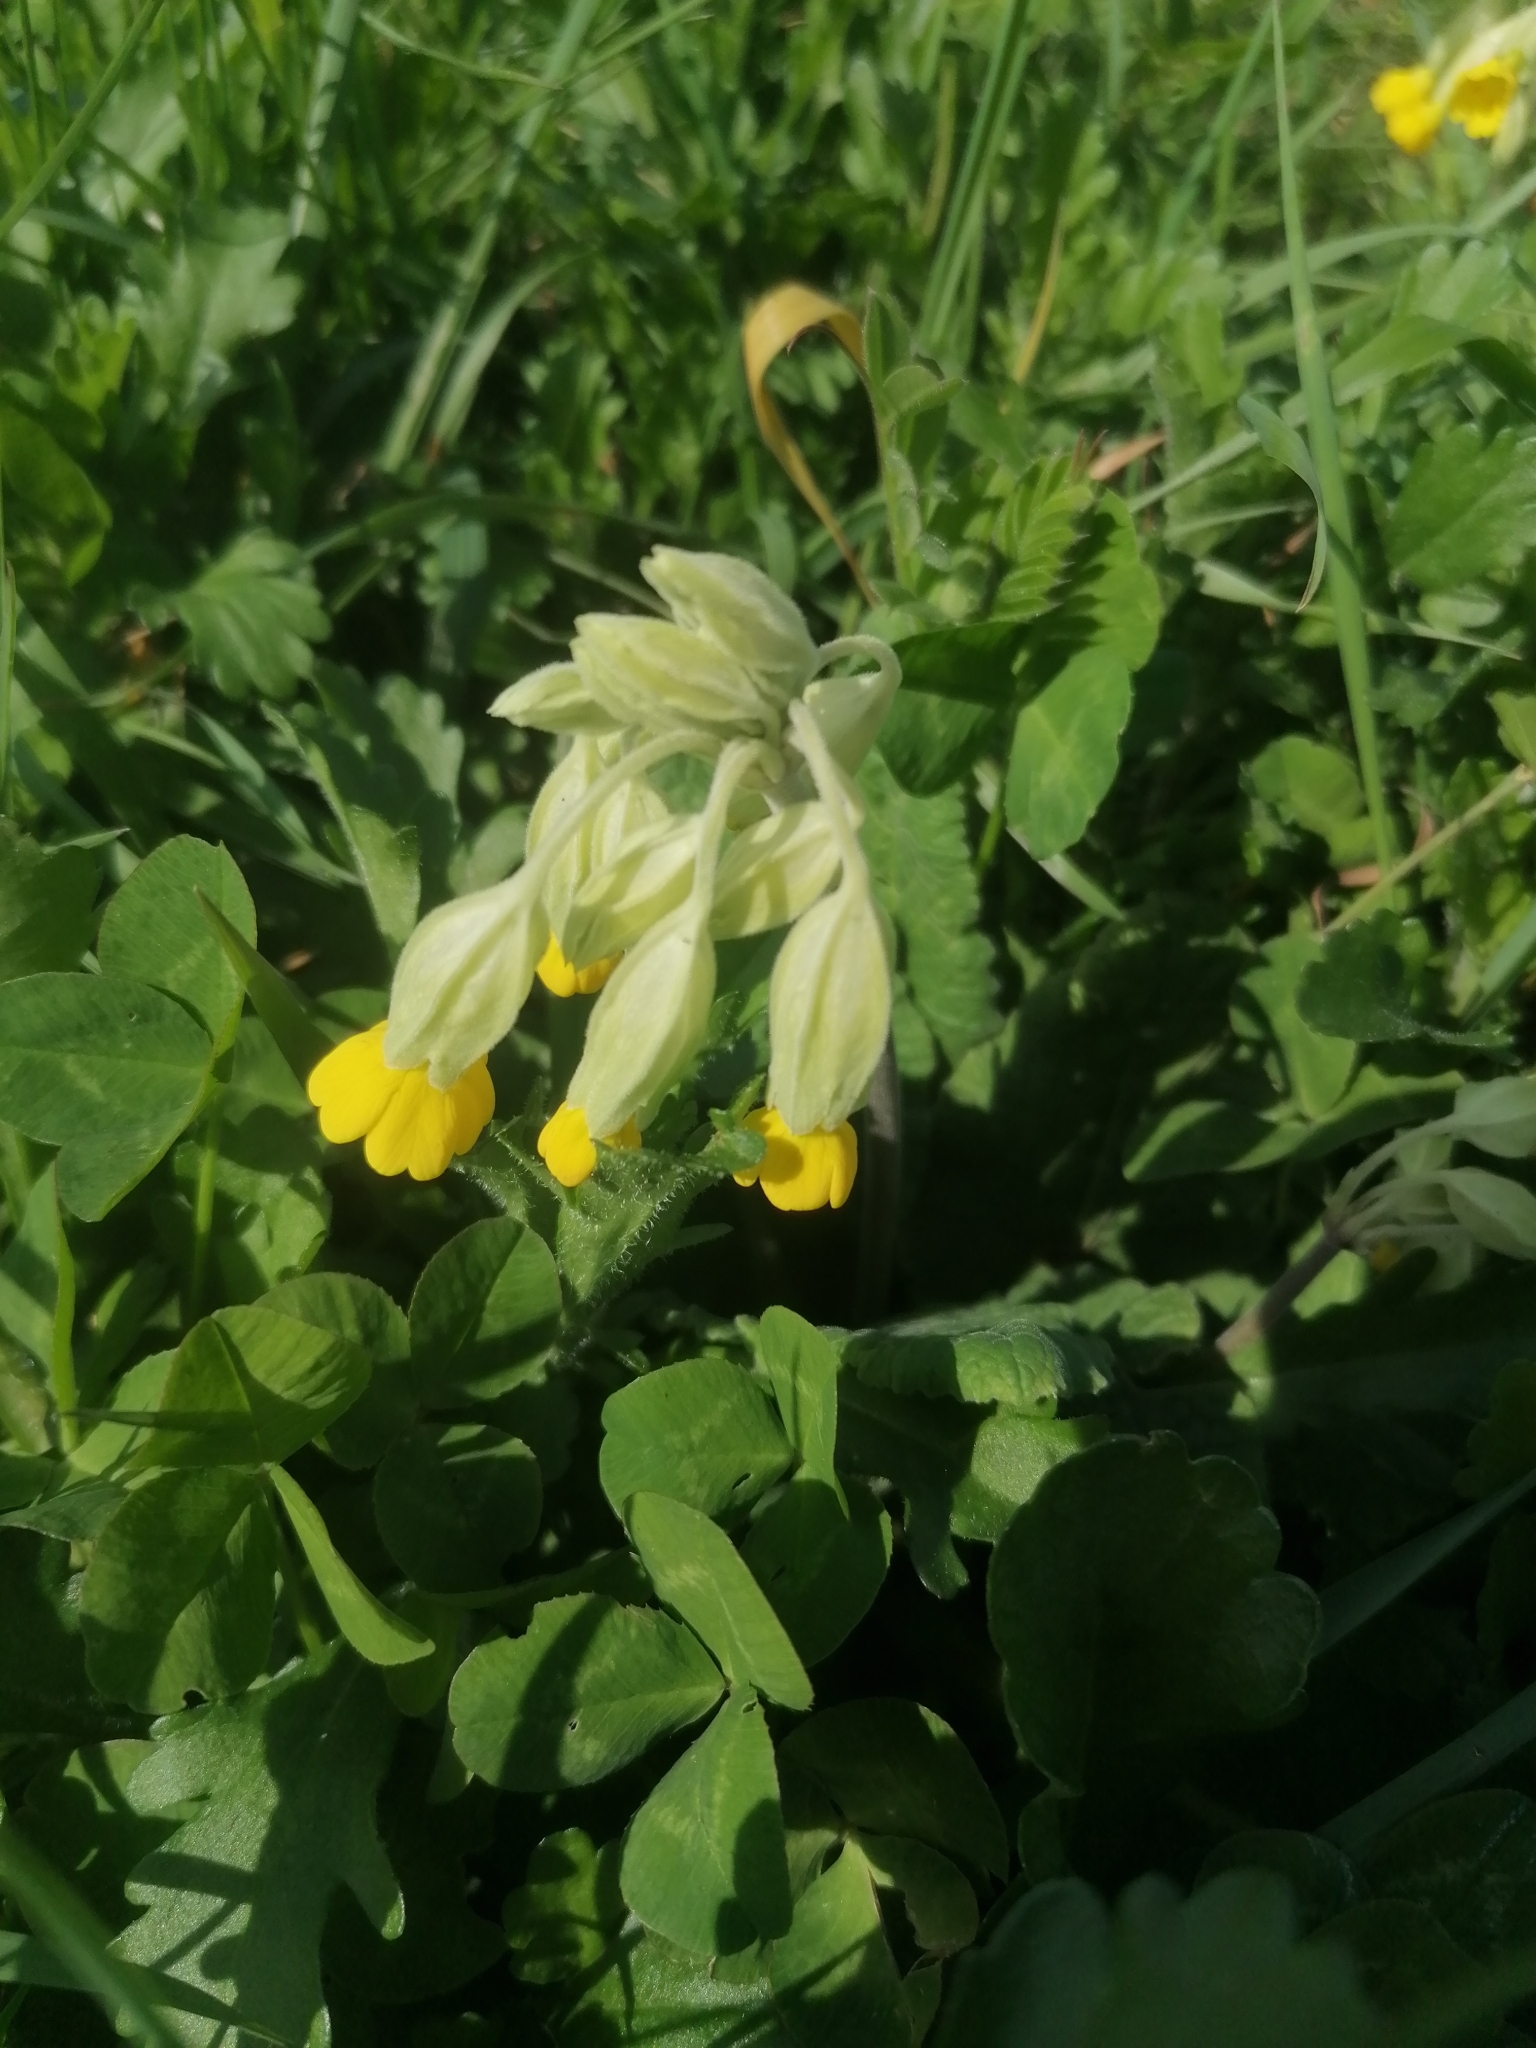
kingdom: Plantae
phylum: Tracheophyta
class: Magnoliopsida
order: Ericales
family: Primulaceae
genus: Primula
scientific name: Primula veris
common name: Cowslip
